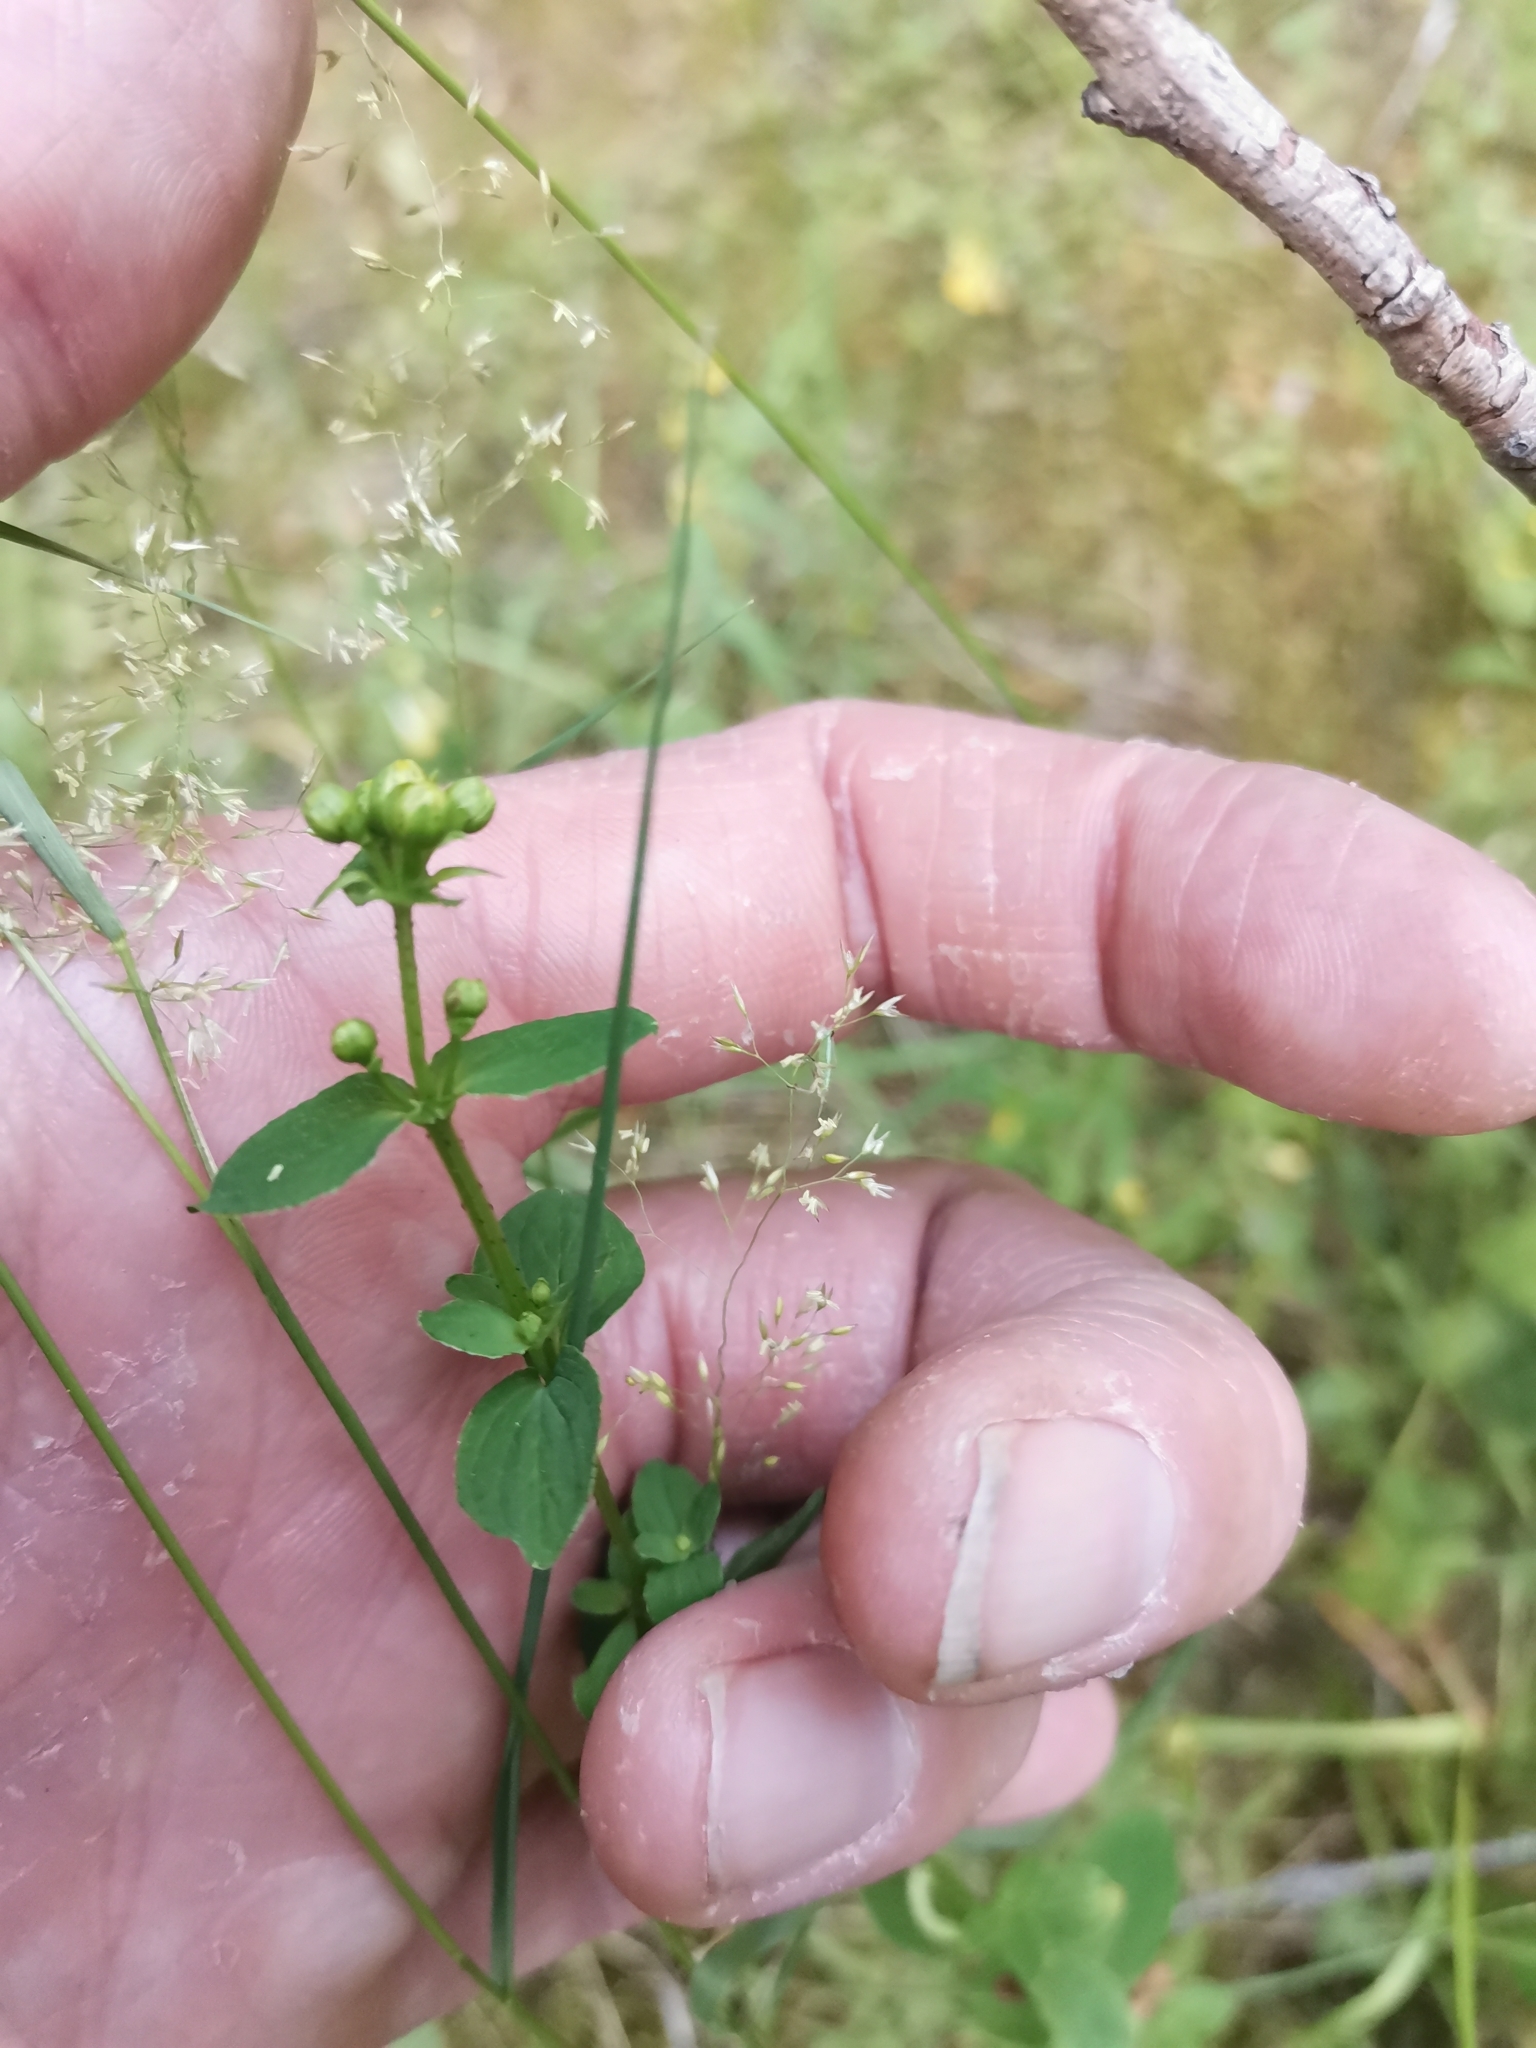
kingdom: Plantae
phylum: Tracheophyta
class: Magnoliopsida
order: Malpighiales
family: Hypericaceae
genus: Hypericum
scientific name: Hypericum maculatum
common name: Imperforate st. john's-wort
